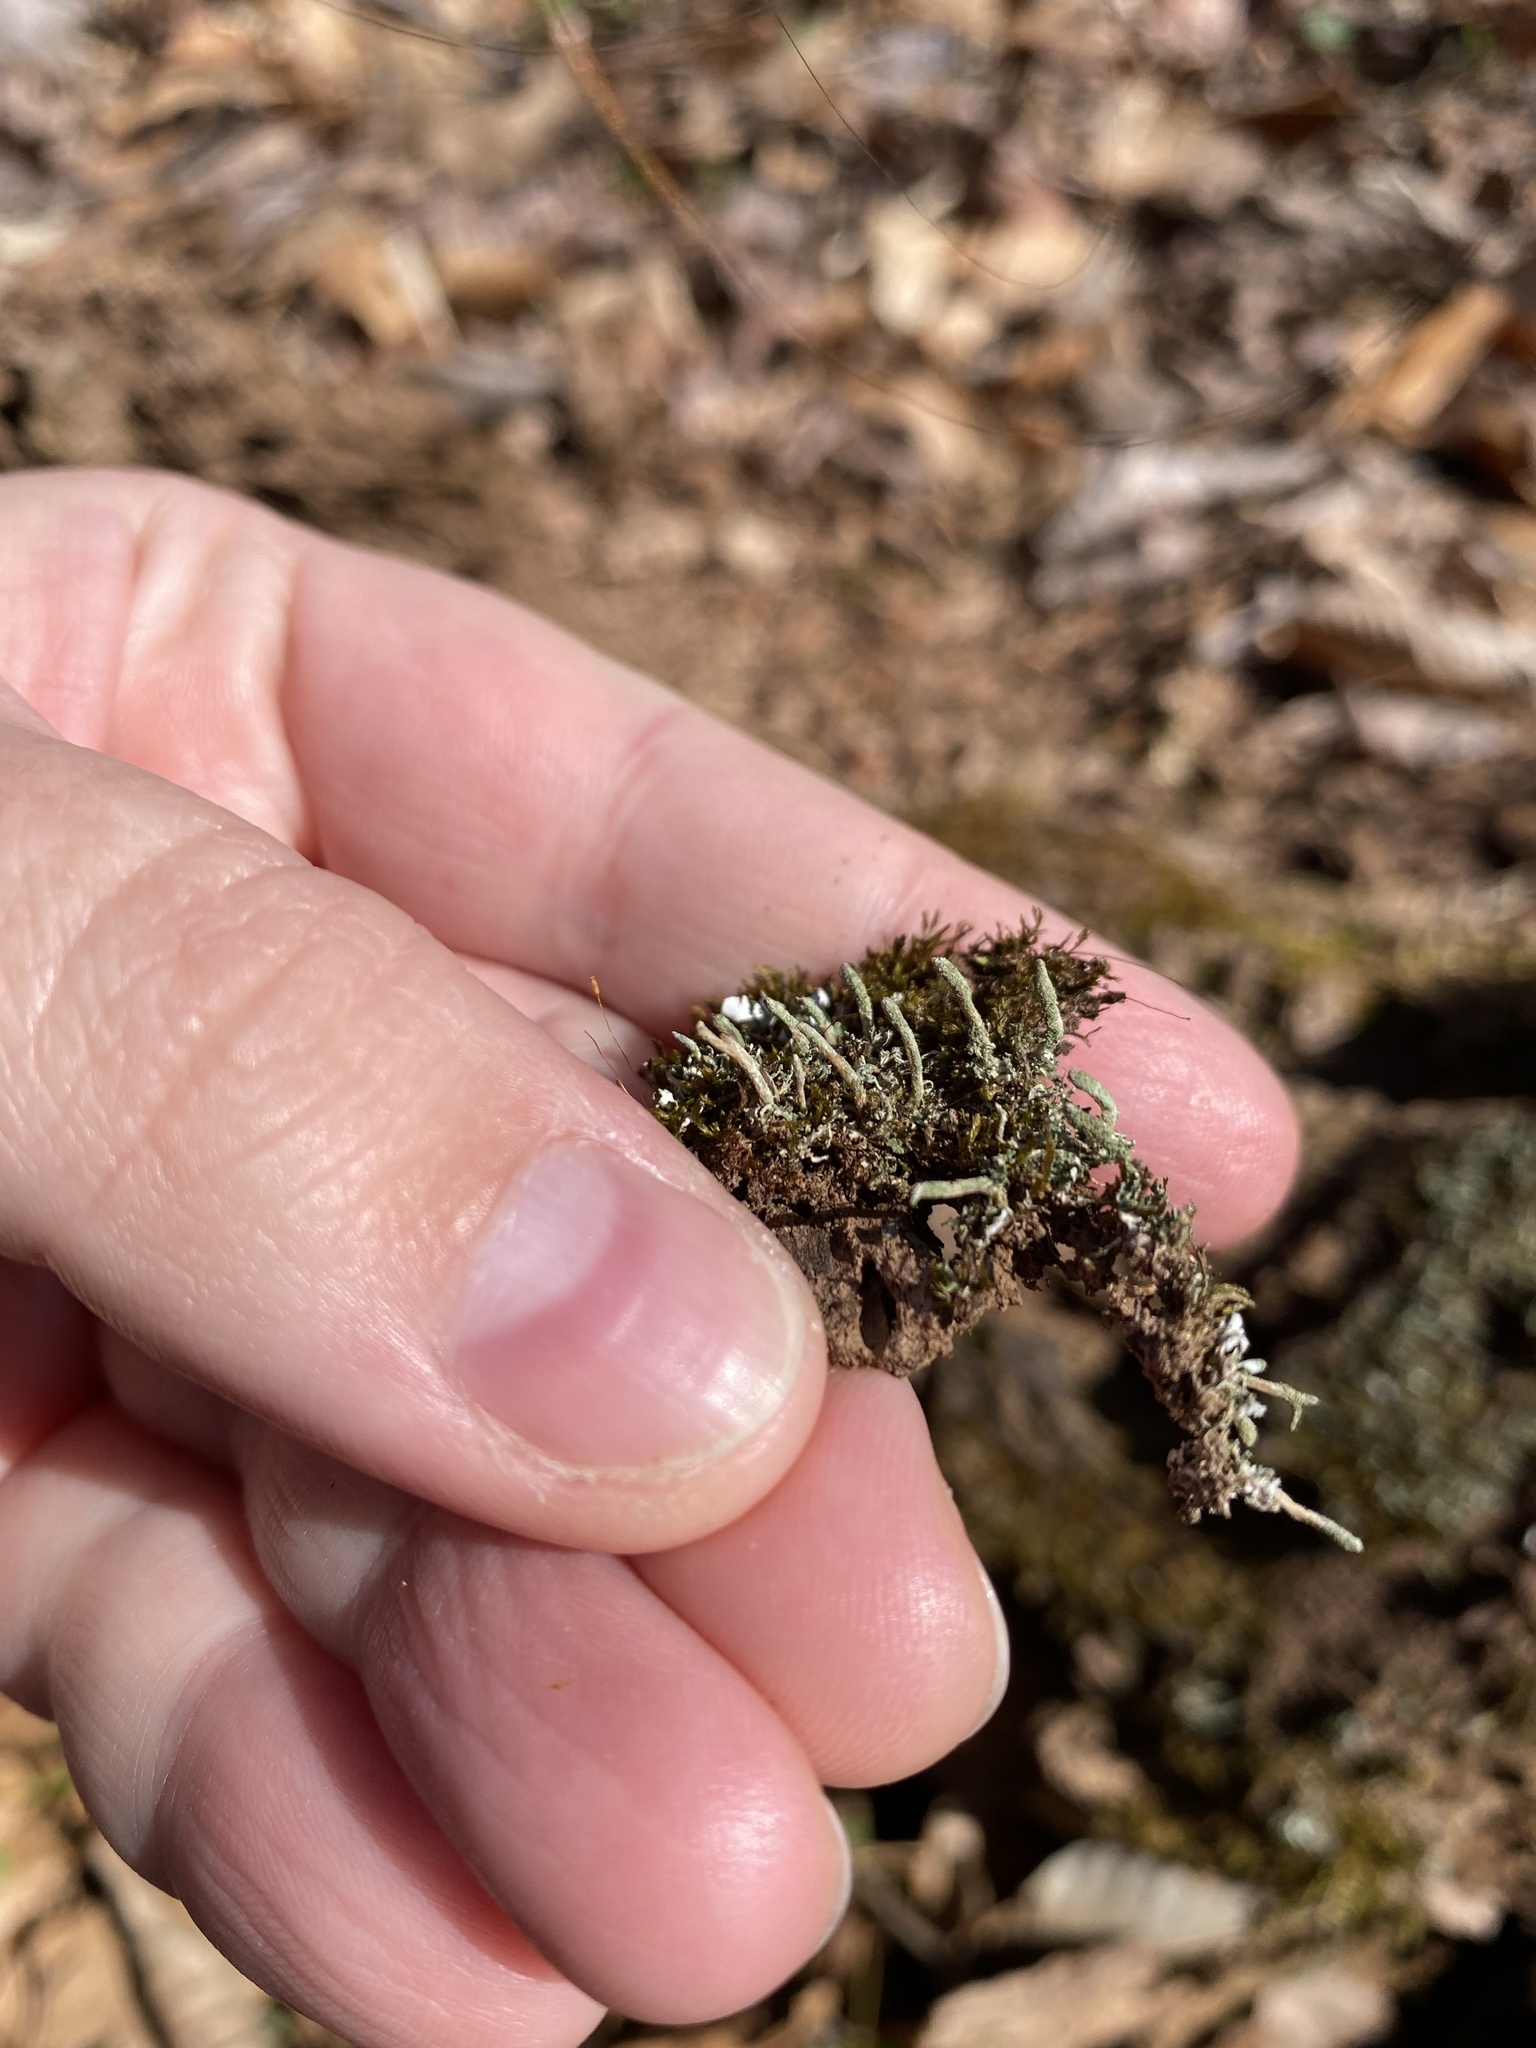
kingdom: Fungi
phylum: Ascomycota
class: Lecanoromycetes
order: Lecanorales
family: Cladoniaceae
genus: Cladonia
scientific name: Cladonia coniocraea
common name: Common powderhorn
